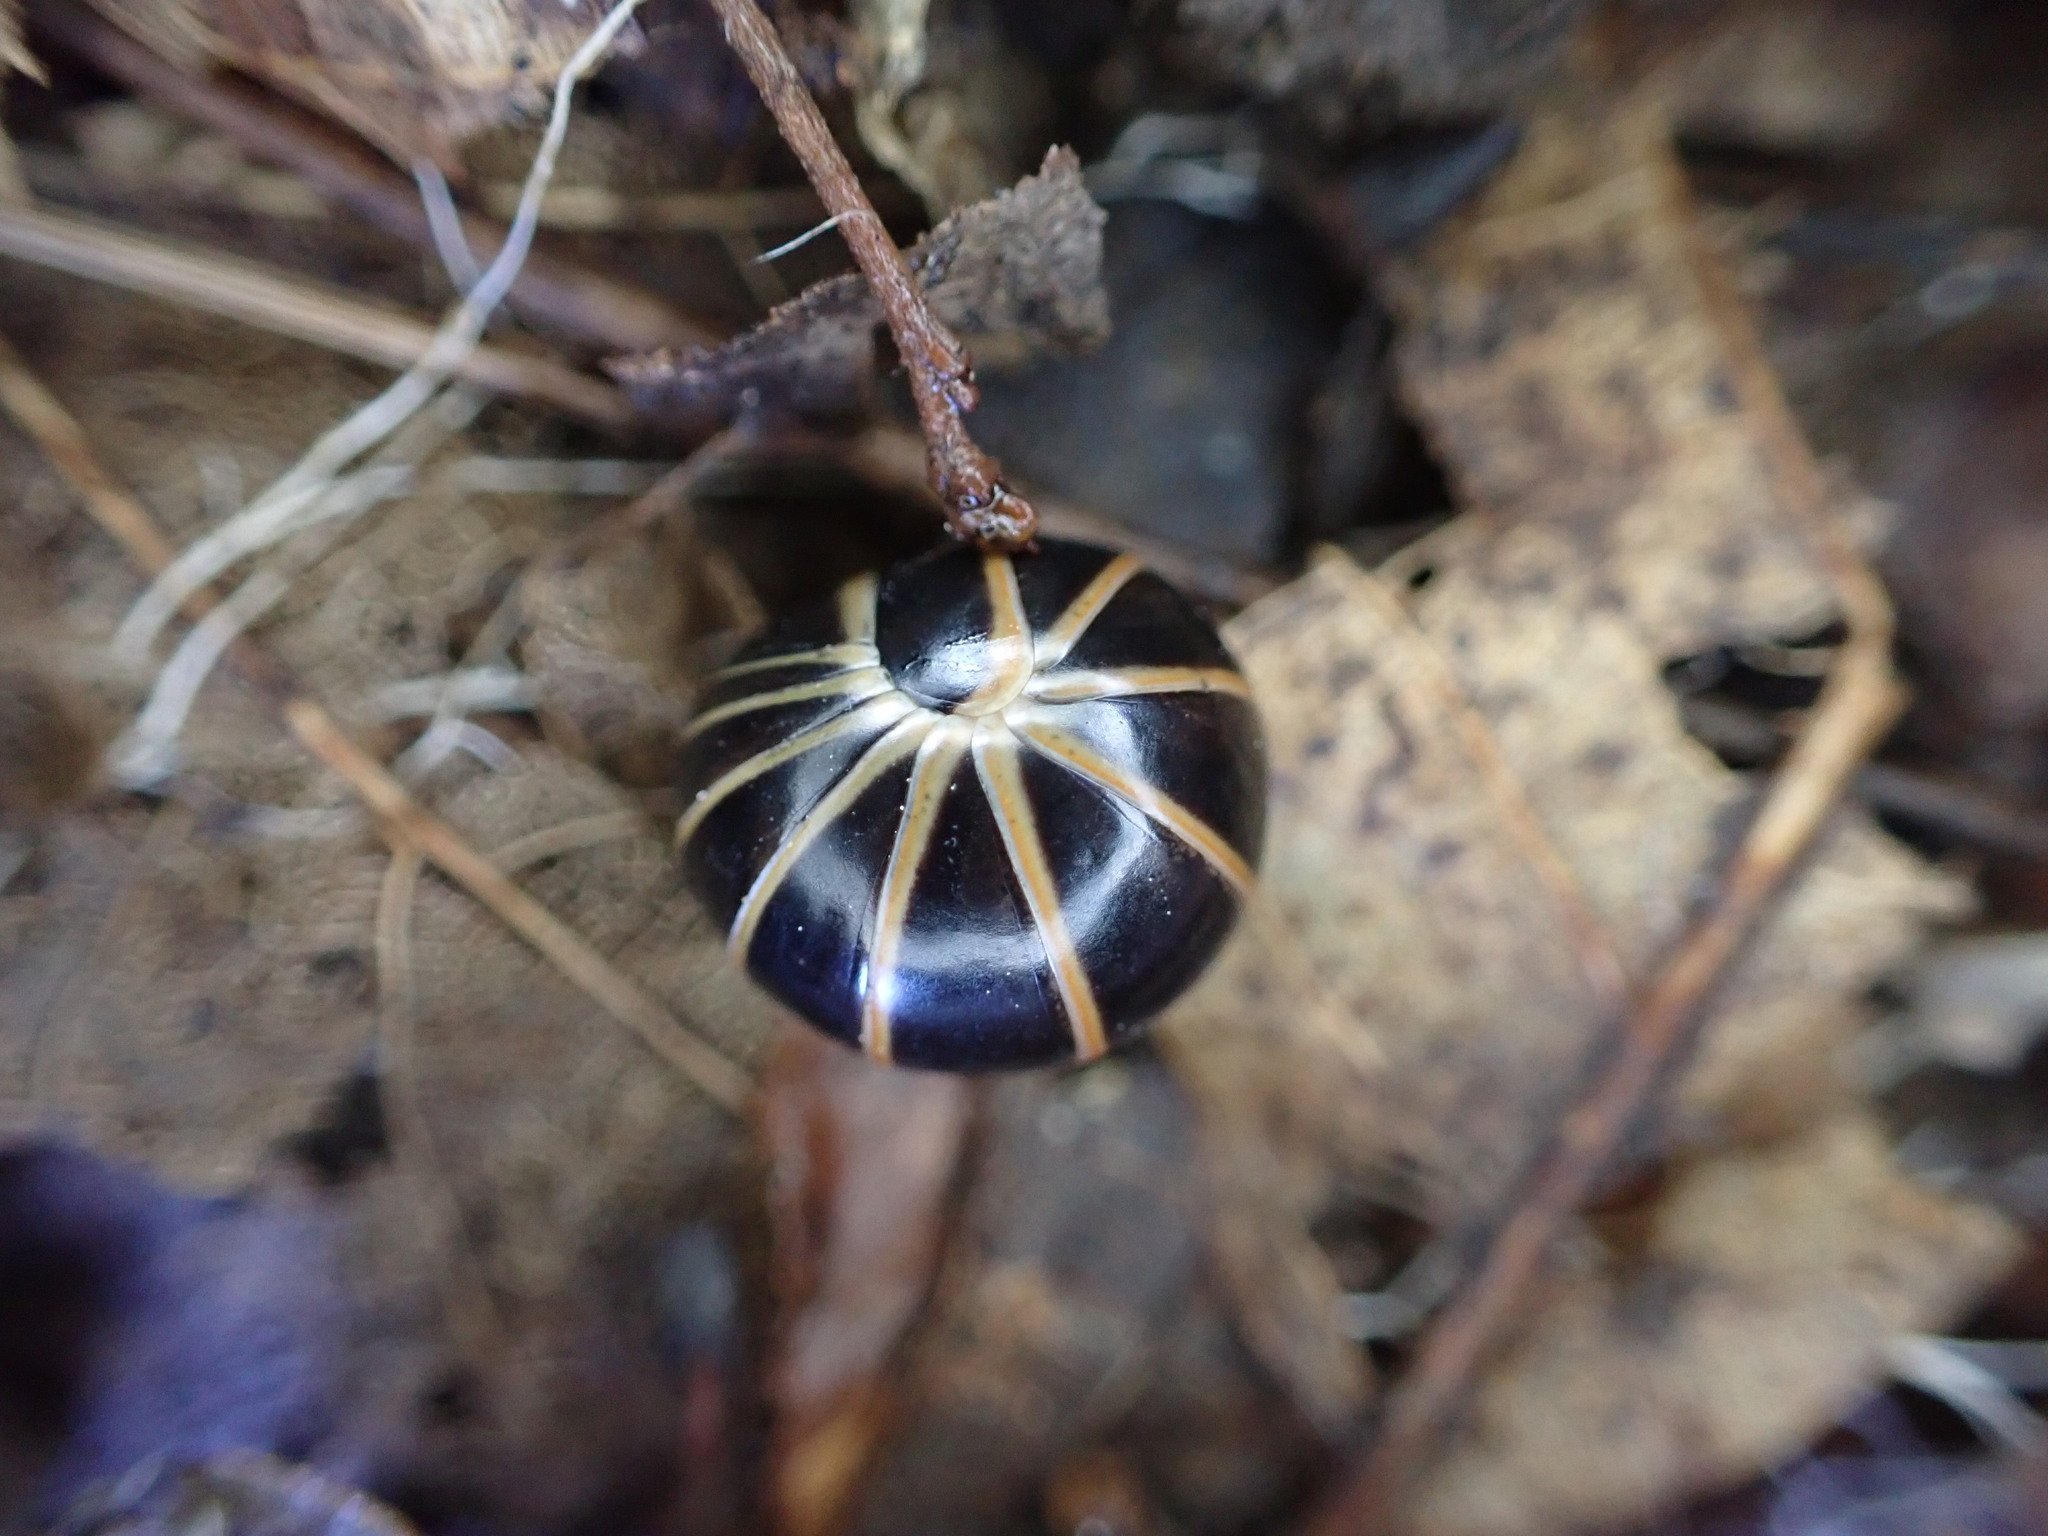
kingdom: Animalia
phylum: Arthropoda
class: Diplopoda
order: Glomerida
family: Glomeridae
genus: Glomeris
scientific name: Glomeris marginata
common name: Bordered pill millipede
